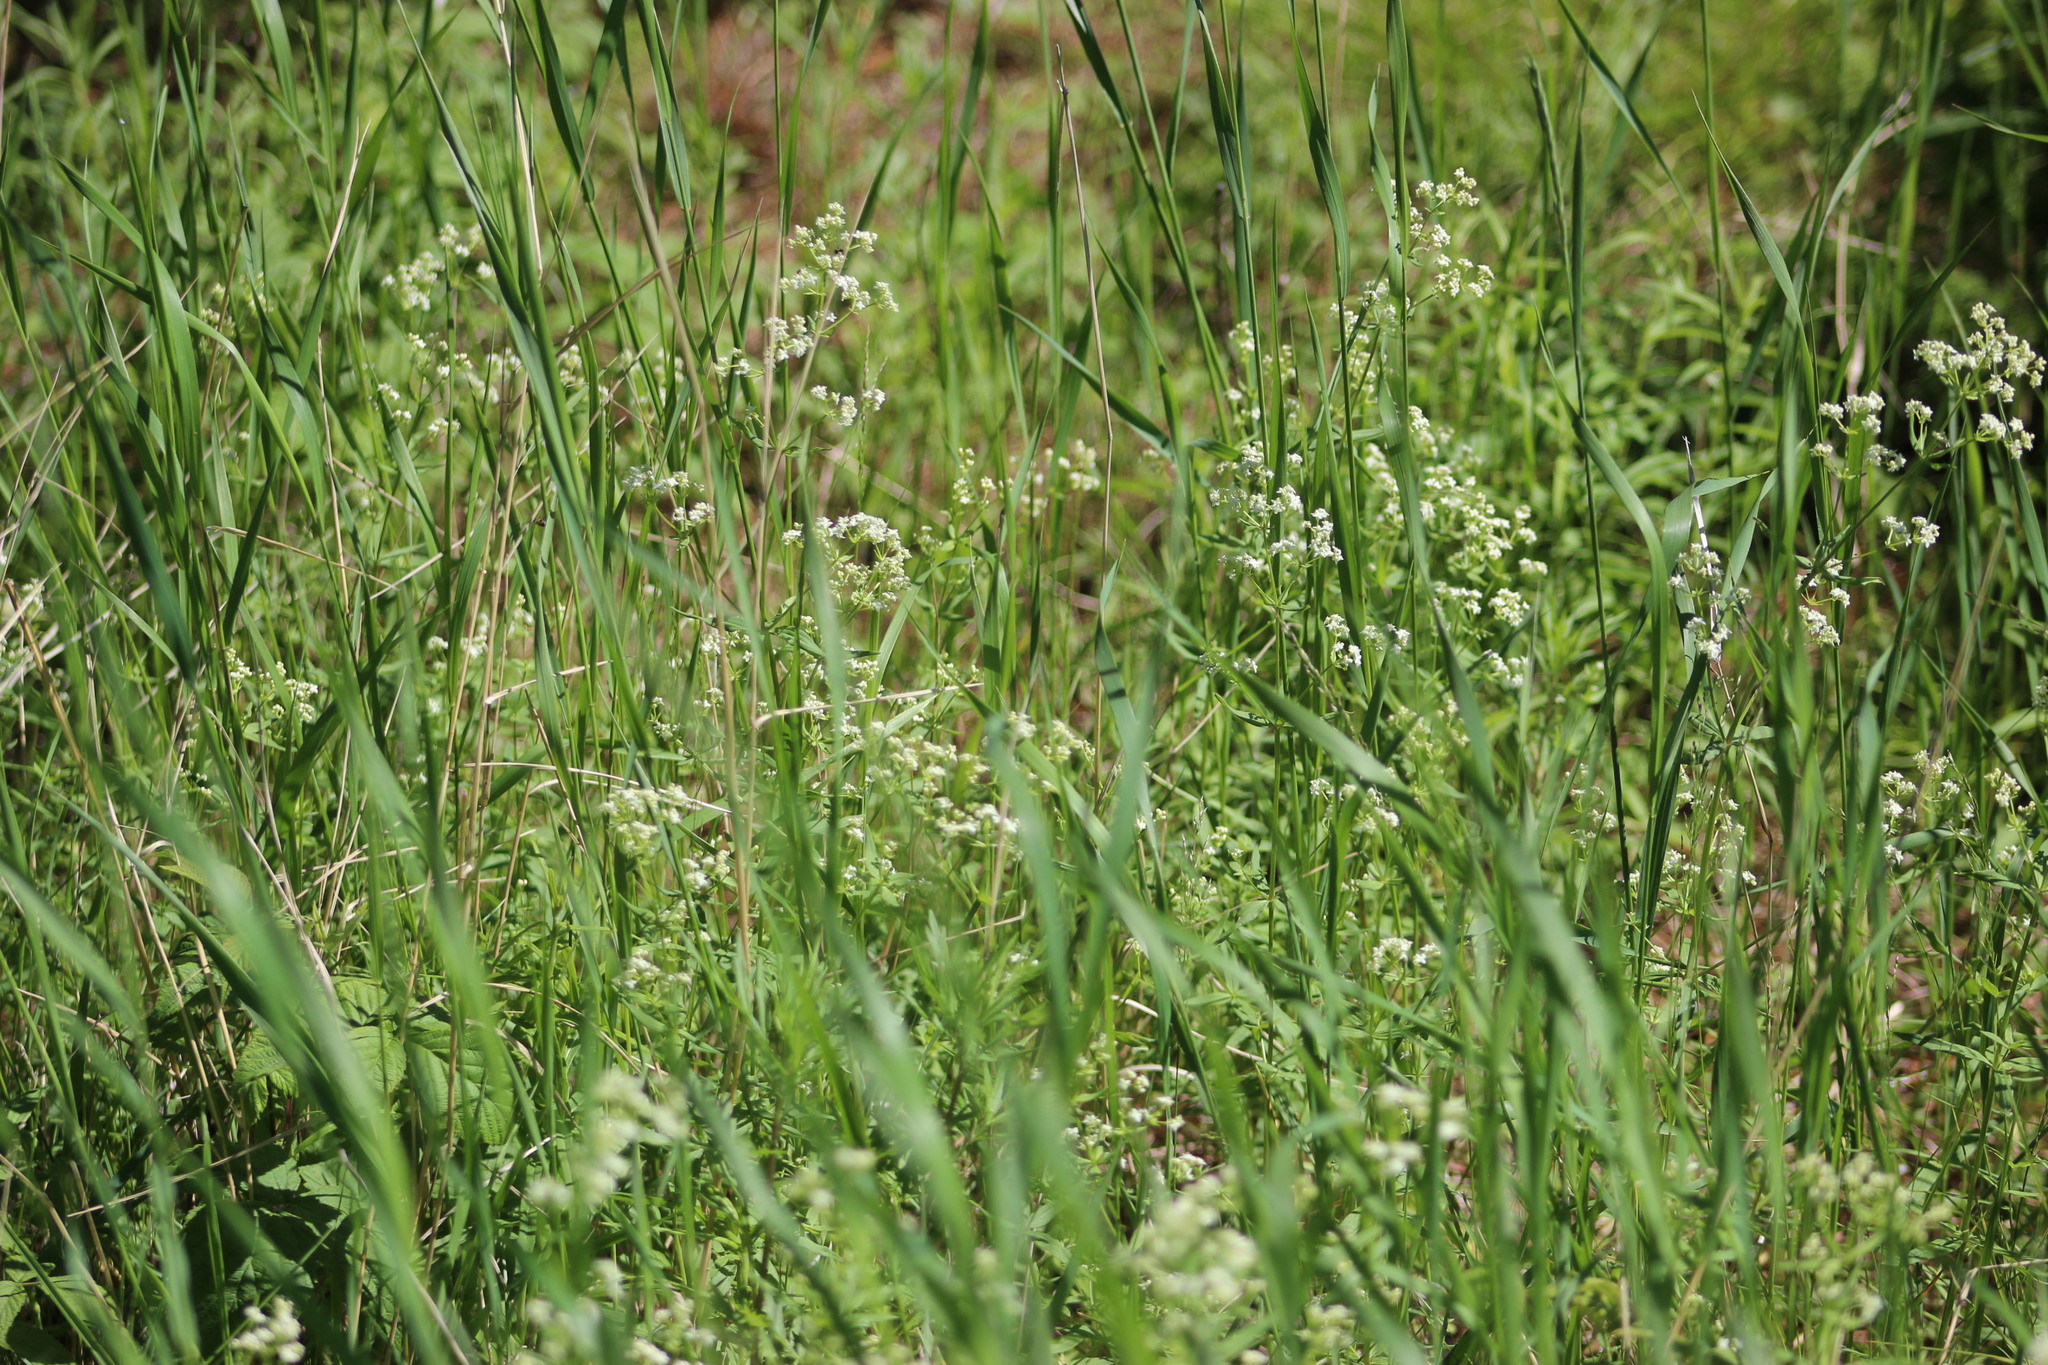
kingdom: Plantae
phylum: Tracheophyta
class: Magnoliopsida
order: Gentianales
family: Rubiaceae
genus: Galium
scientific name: Galium boreale
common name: Northern bedstraw
